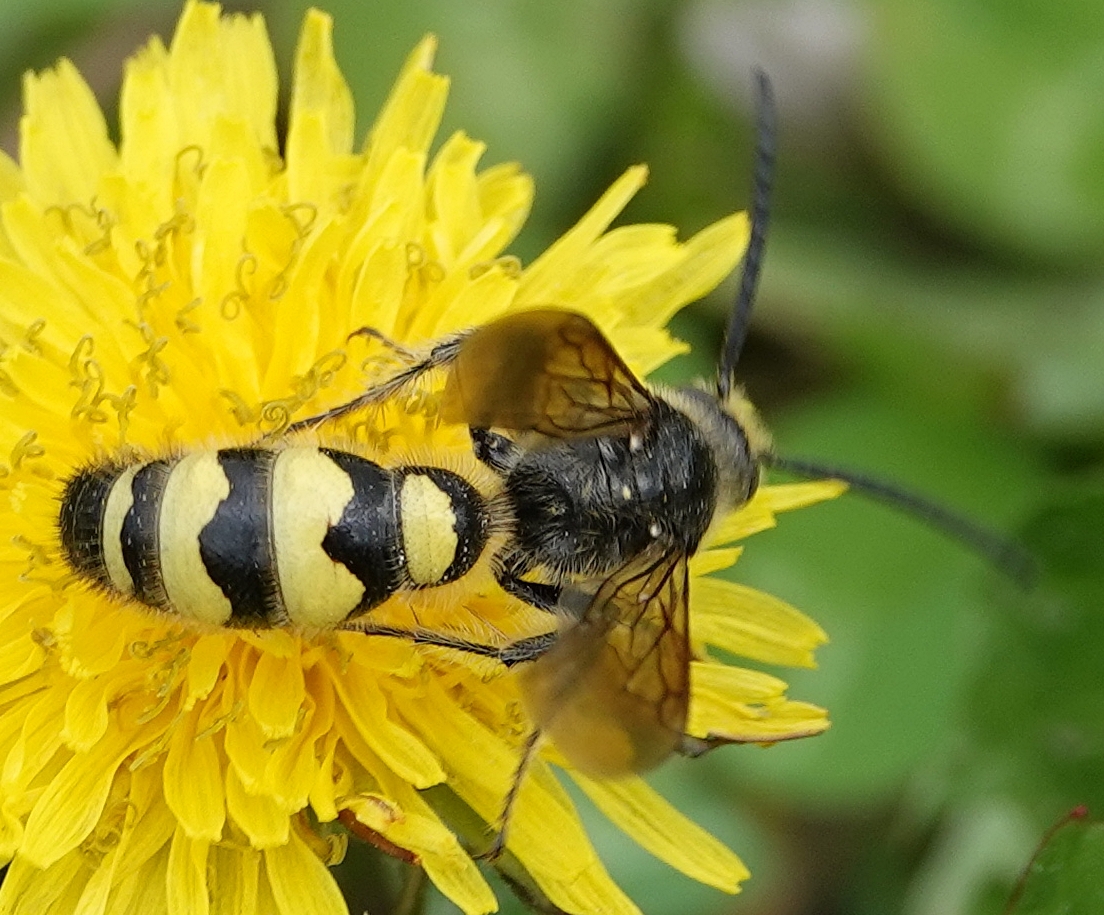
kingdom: Animalia
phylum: Arthropoda
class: Insecta
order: Hymenoptera
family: Scoliidae
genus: Dielis
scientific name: Dielis
